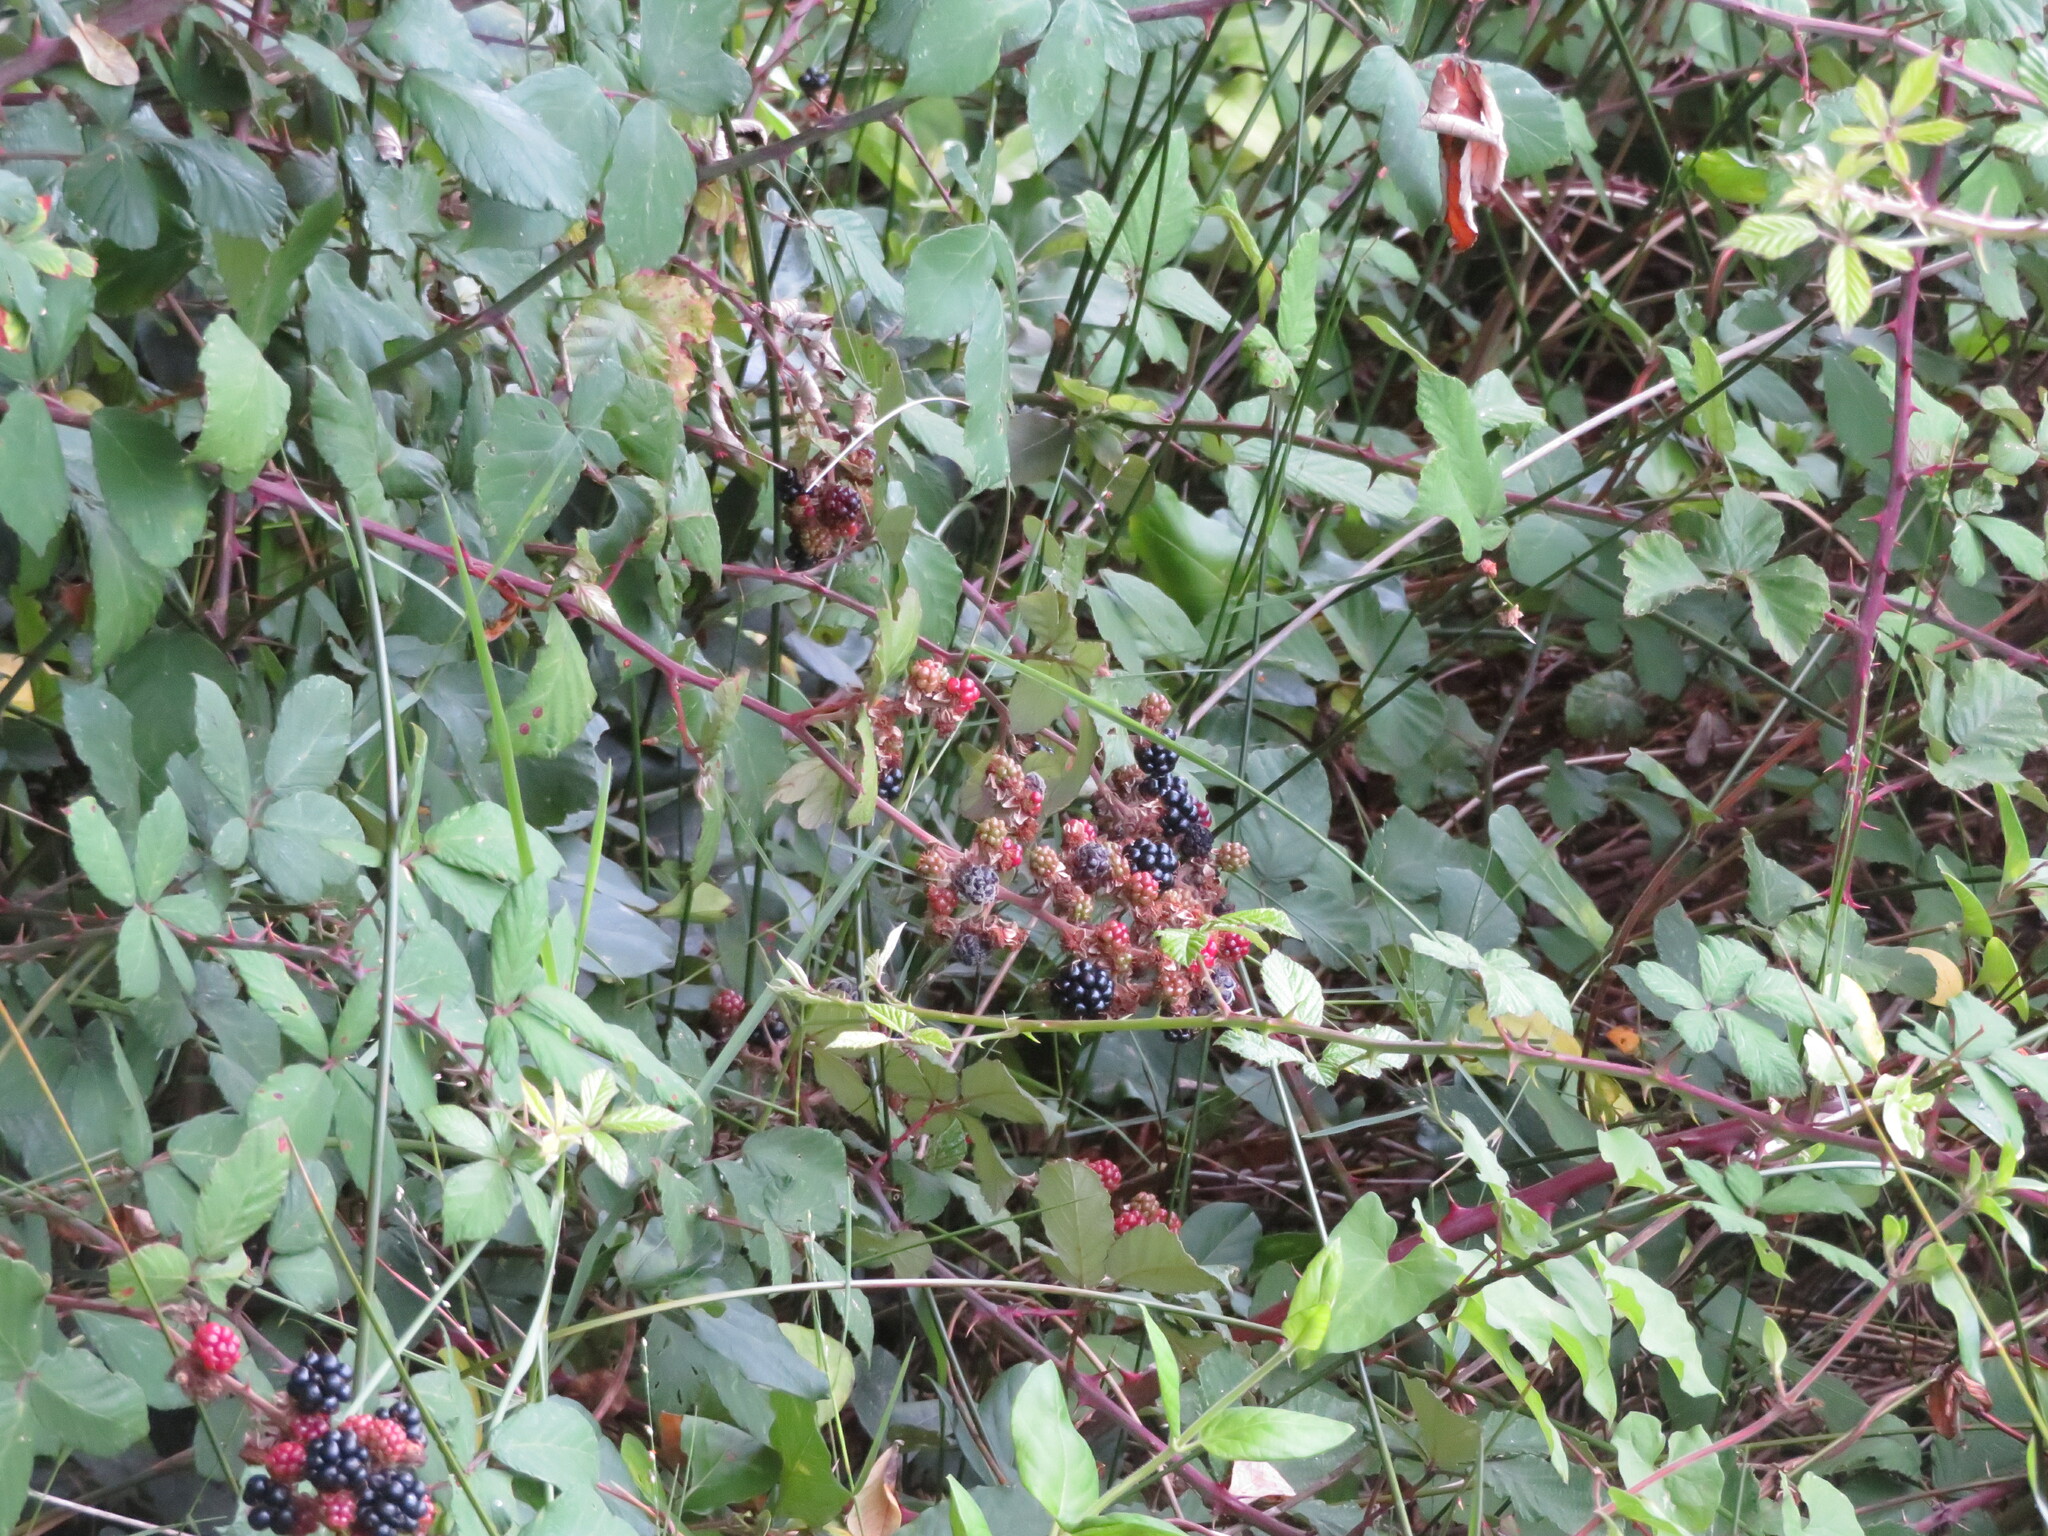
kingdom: Plantae
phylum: Tracheophyta
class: Magnoliopsida
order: Rosales
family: Rosaceae
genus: Rubus
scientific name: Rubus ulmifolius
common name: Elmleaf blackberry
